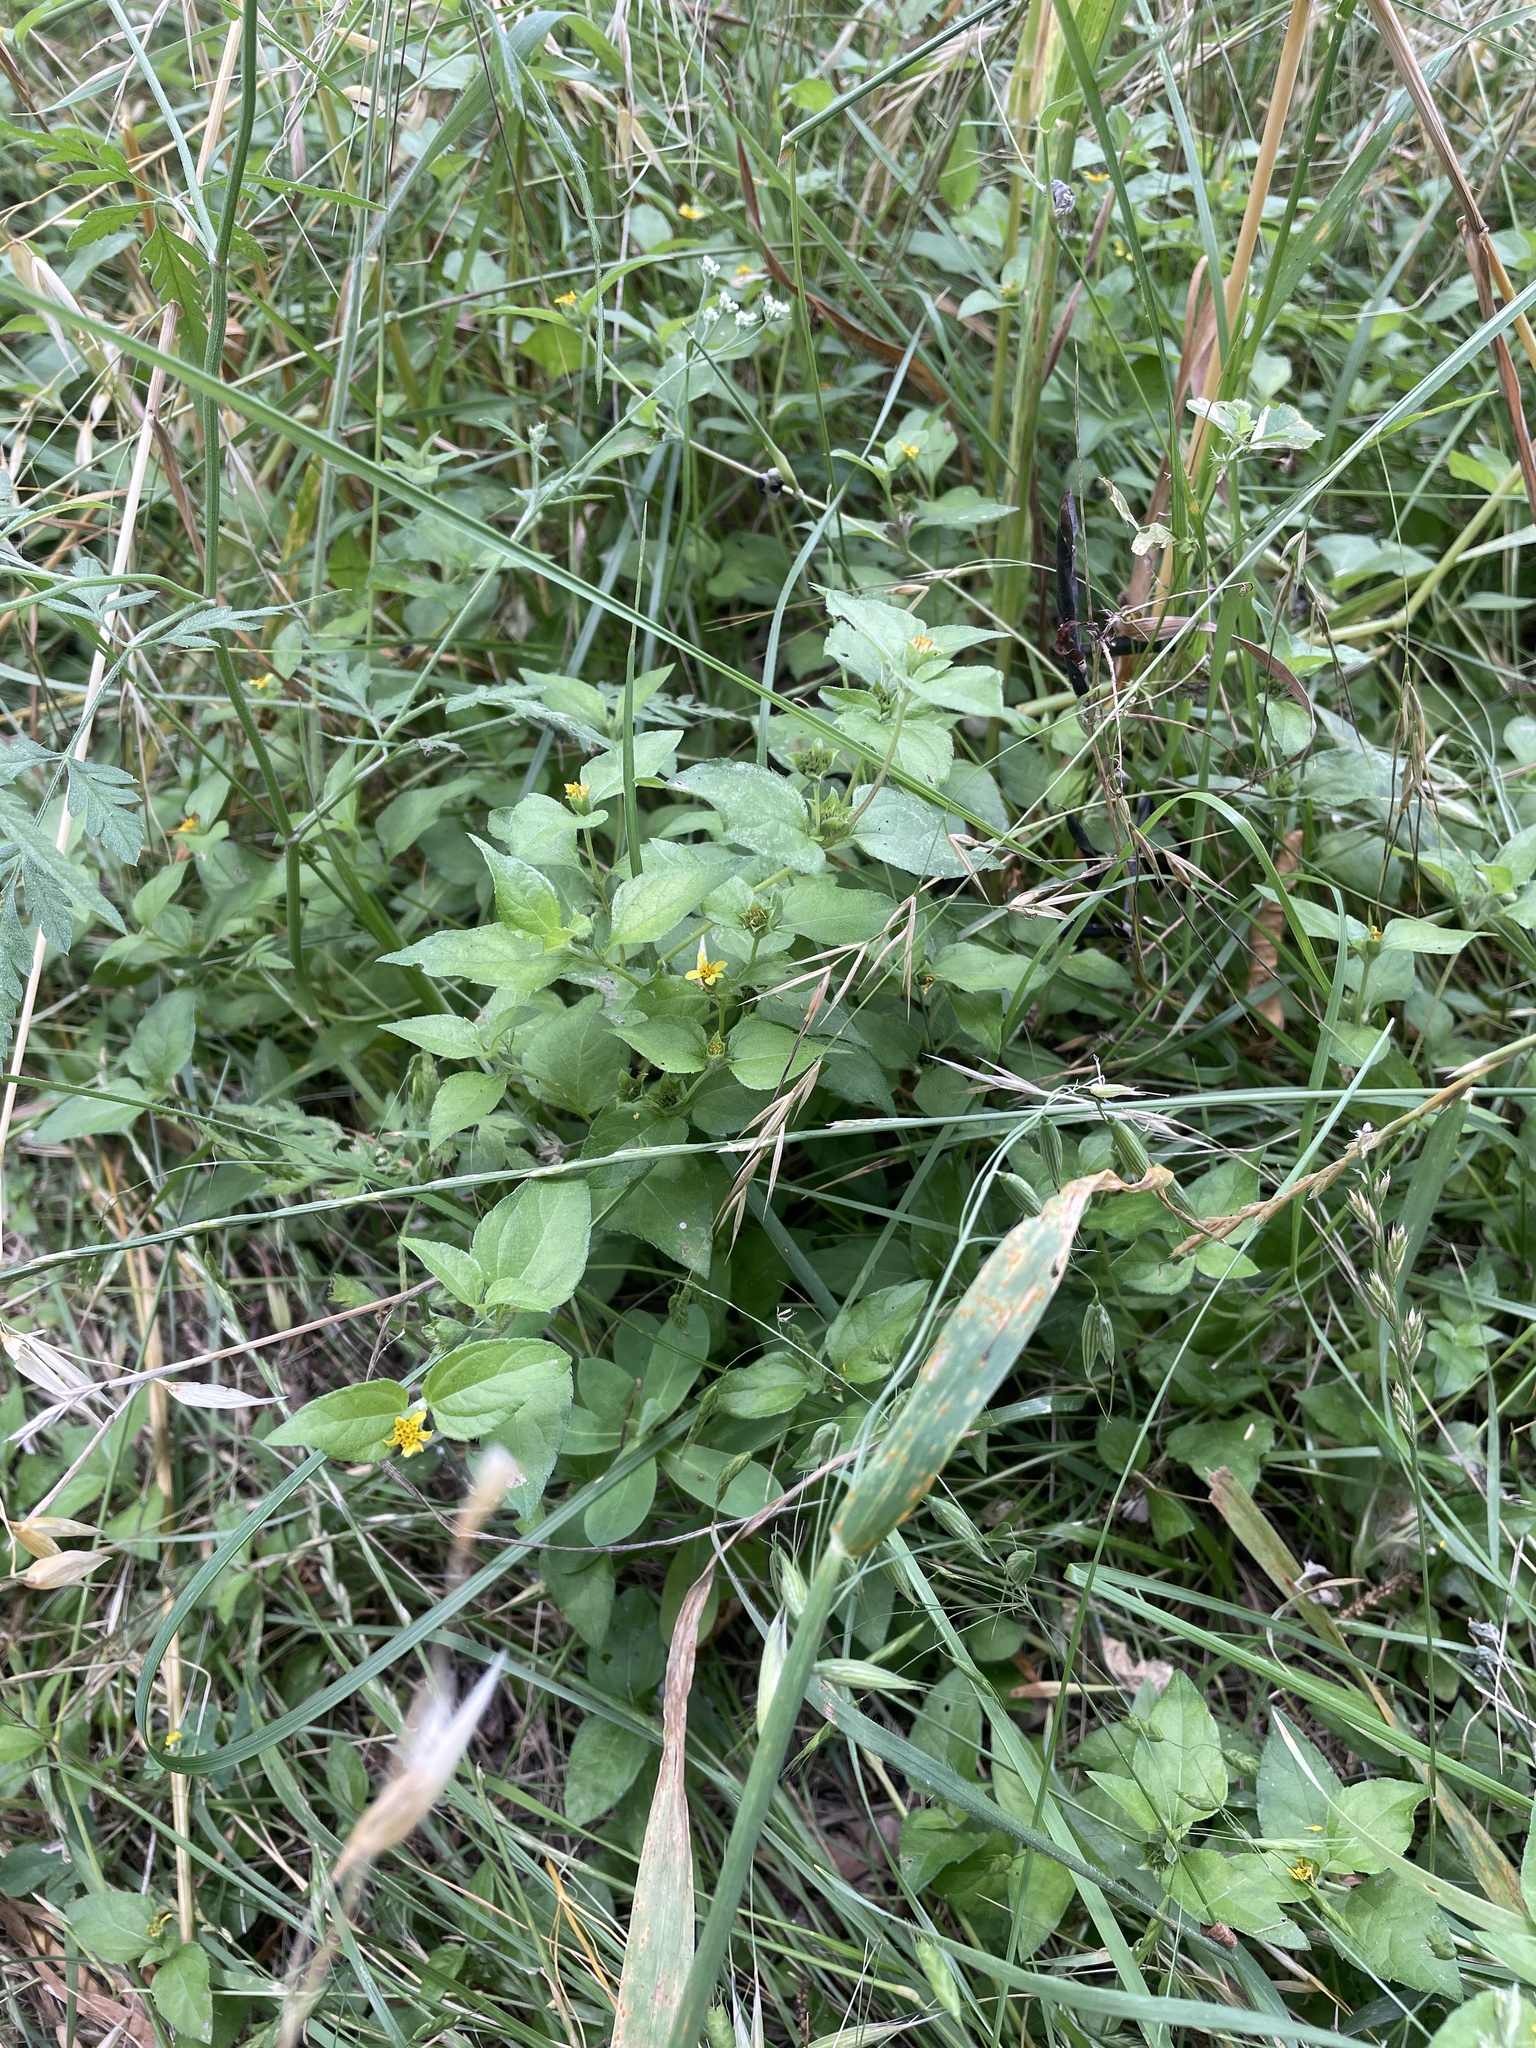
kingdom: Plantae
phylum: Tracheophyta
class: Magnoliopsida
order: Asterales
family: Asteraceae
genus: Calyptocarpus
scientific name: Calyptocarpus vialis
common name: Straggler daisy
